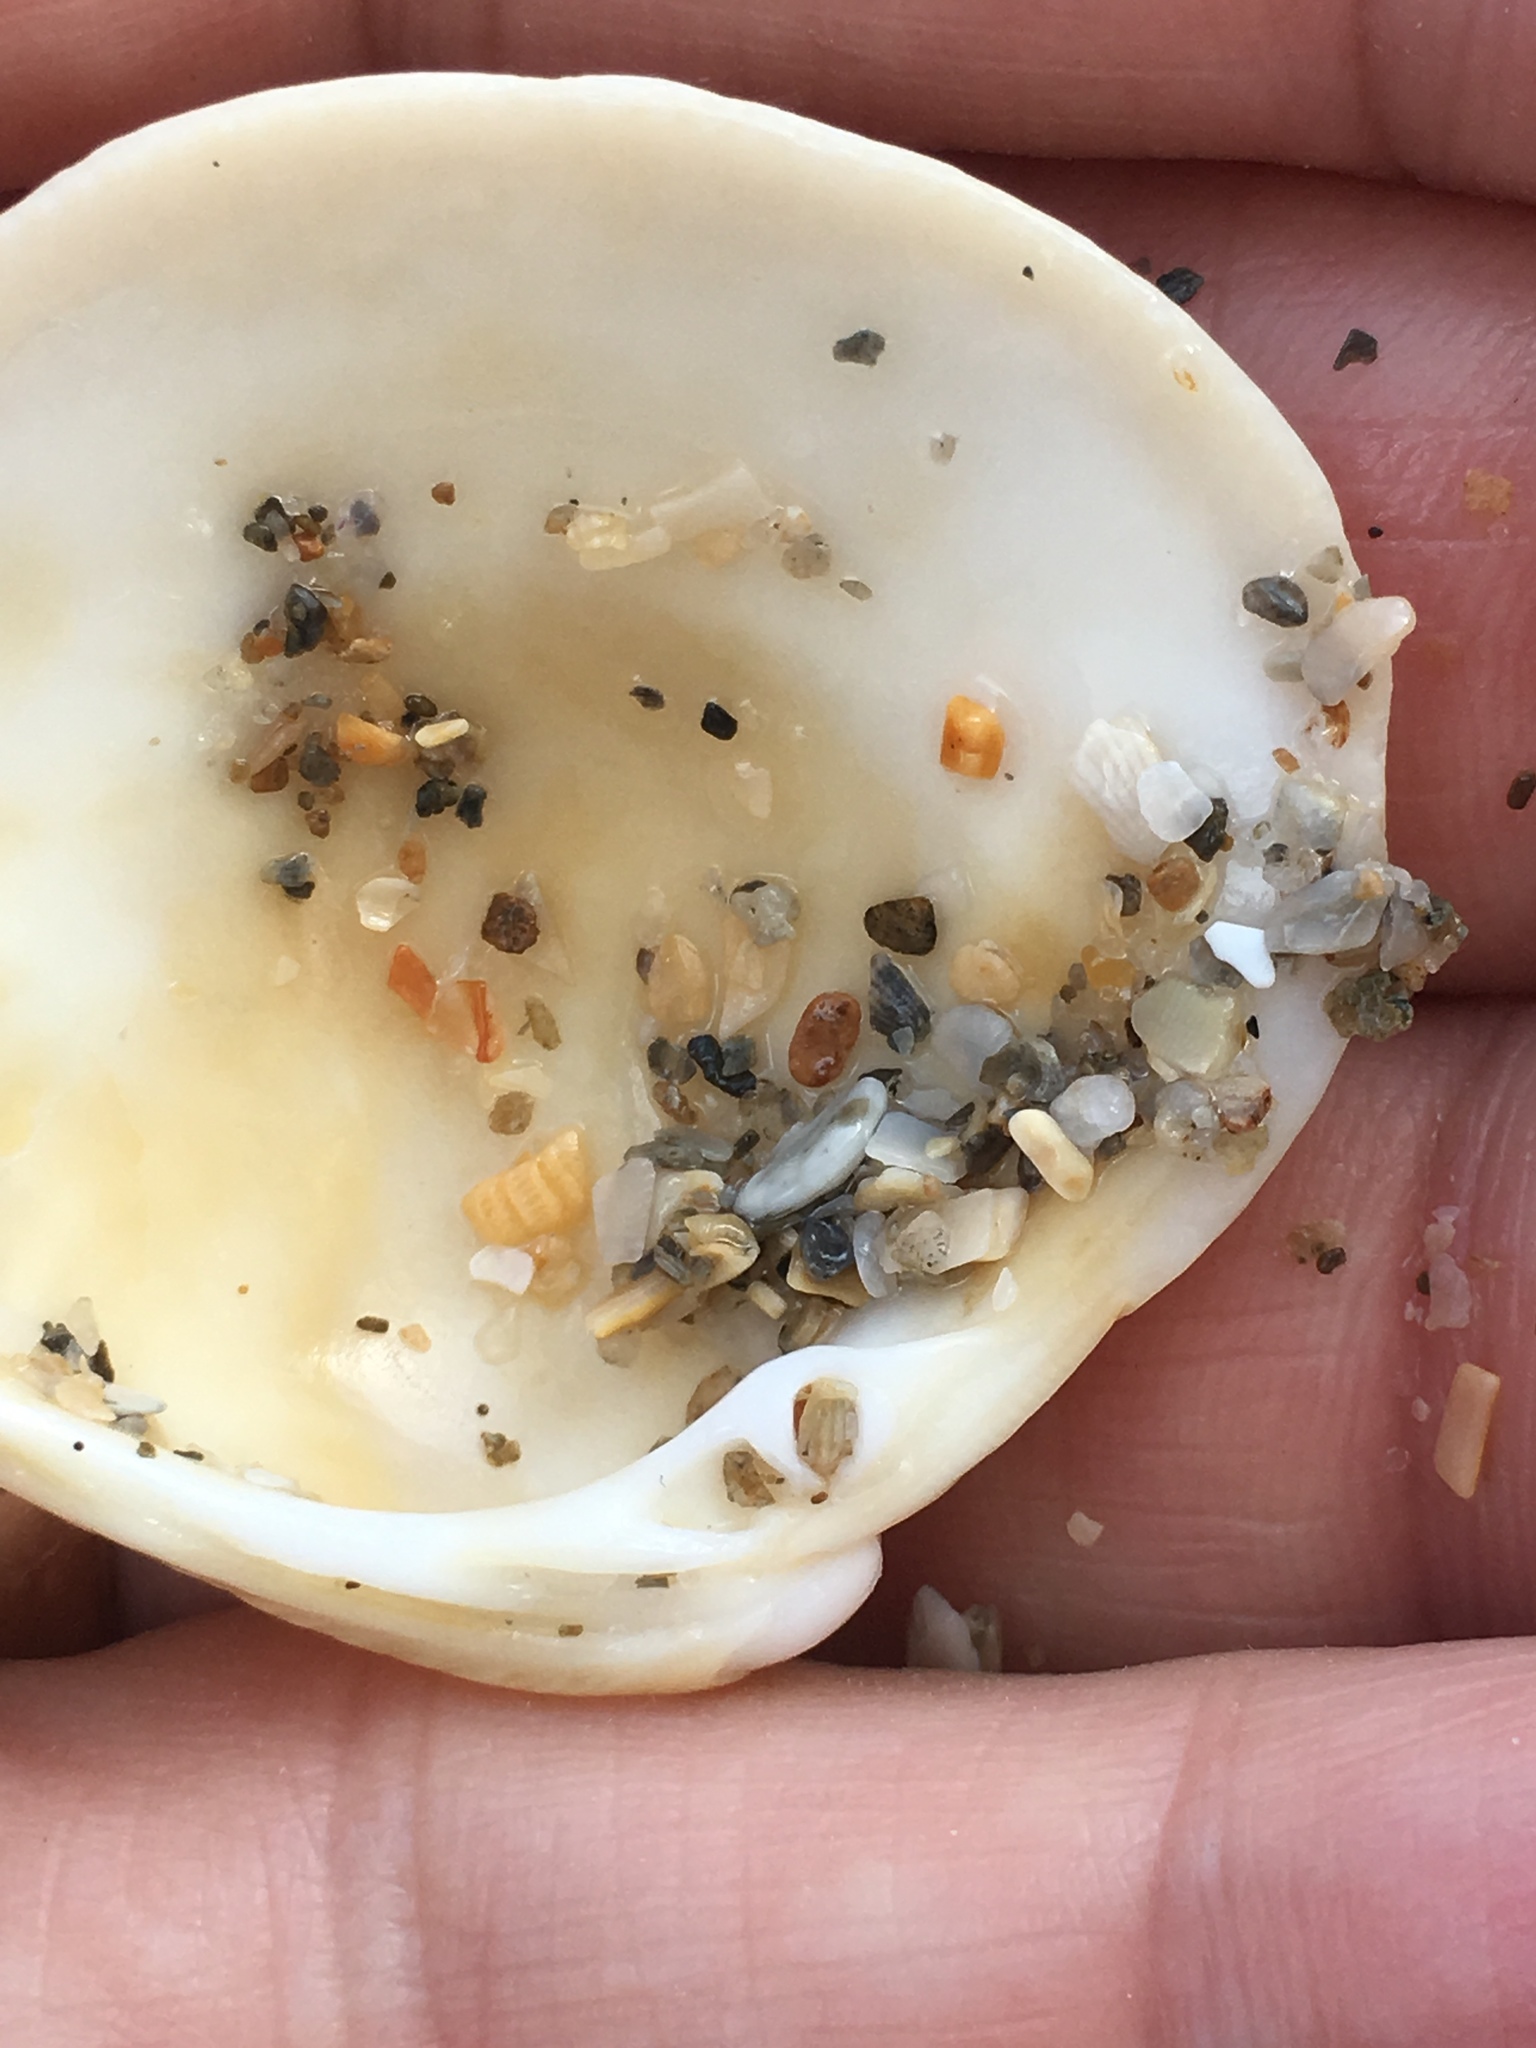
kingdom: Animalia
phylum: Mollusca
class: Bivalvia
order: Venerida
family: Veneridae
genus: Chionopsis
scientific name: Chionopsis intapurpurea
